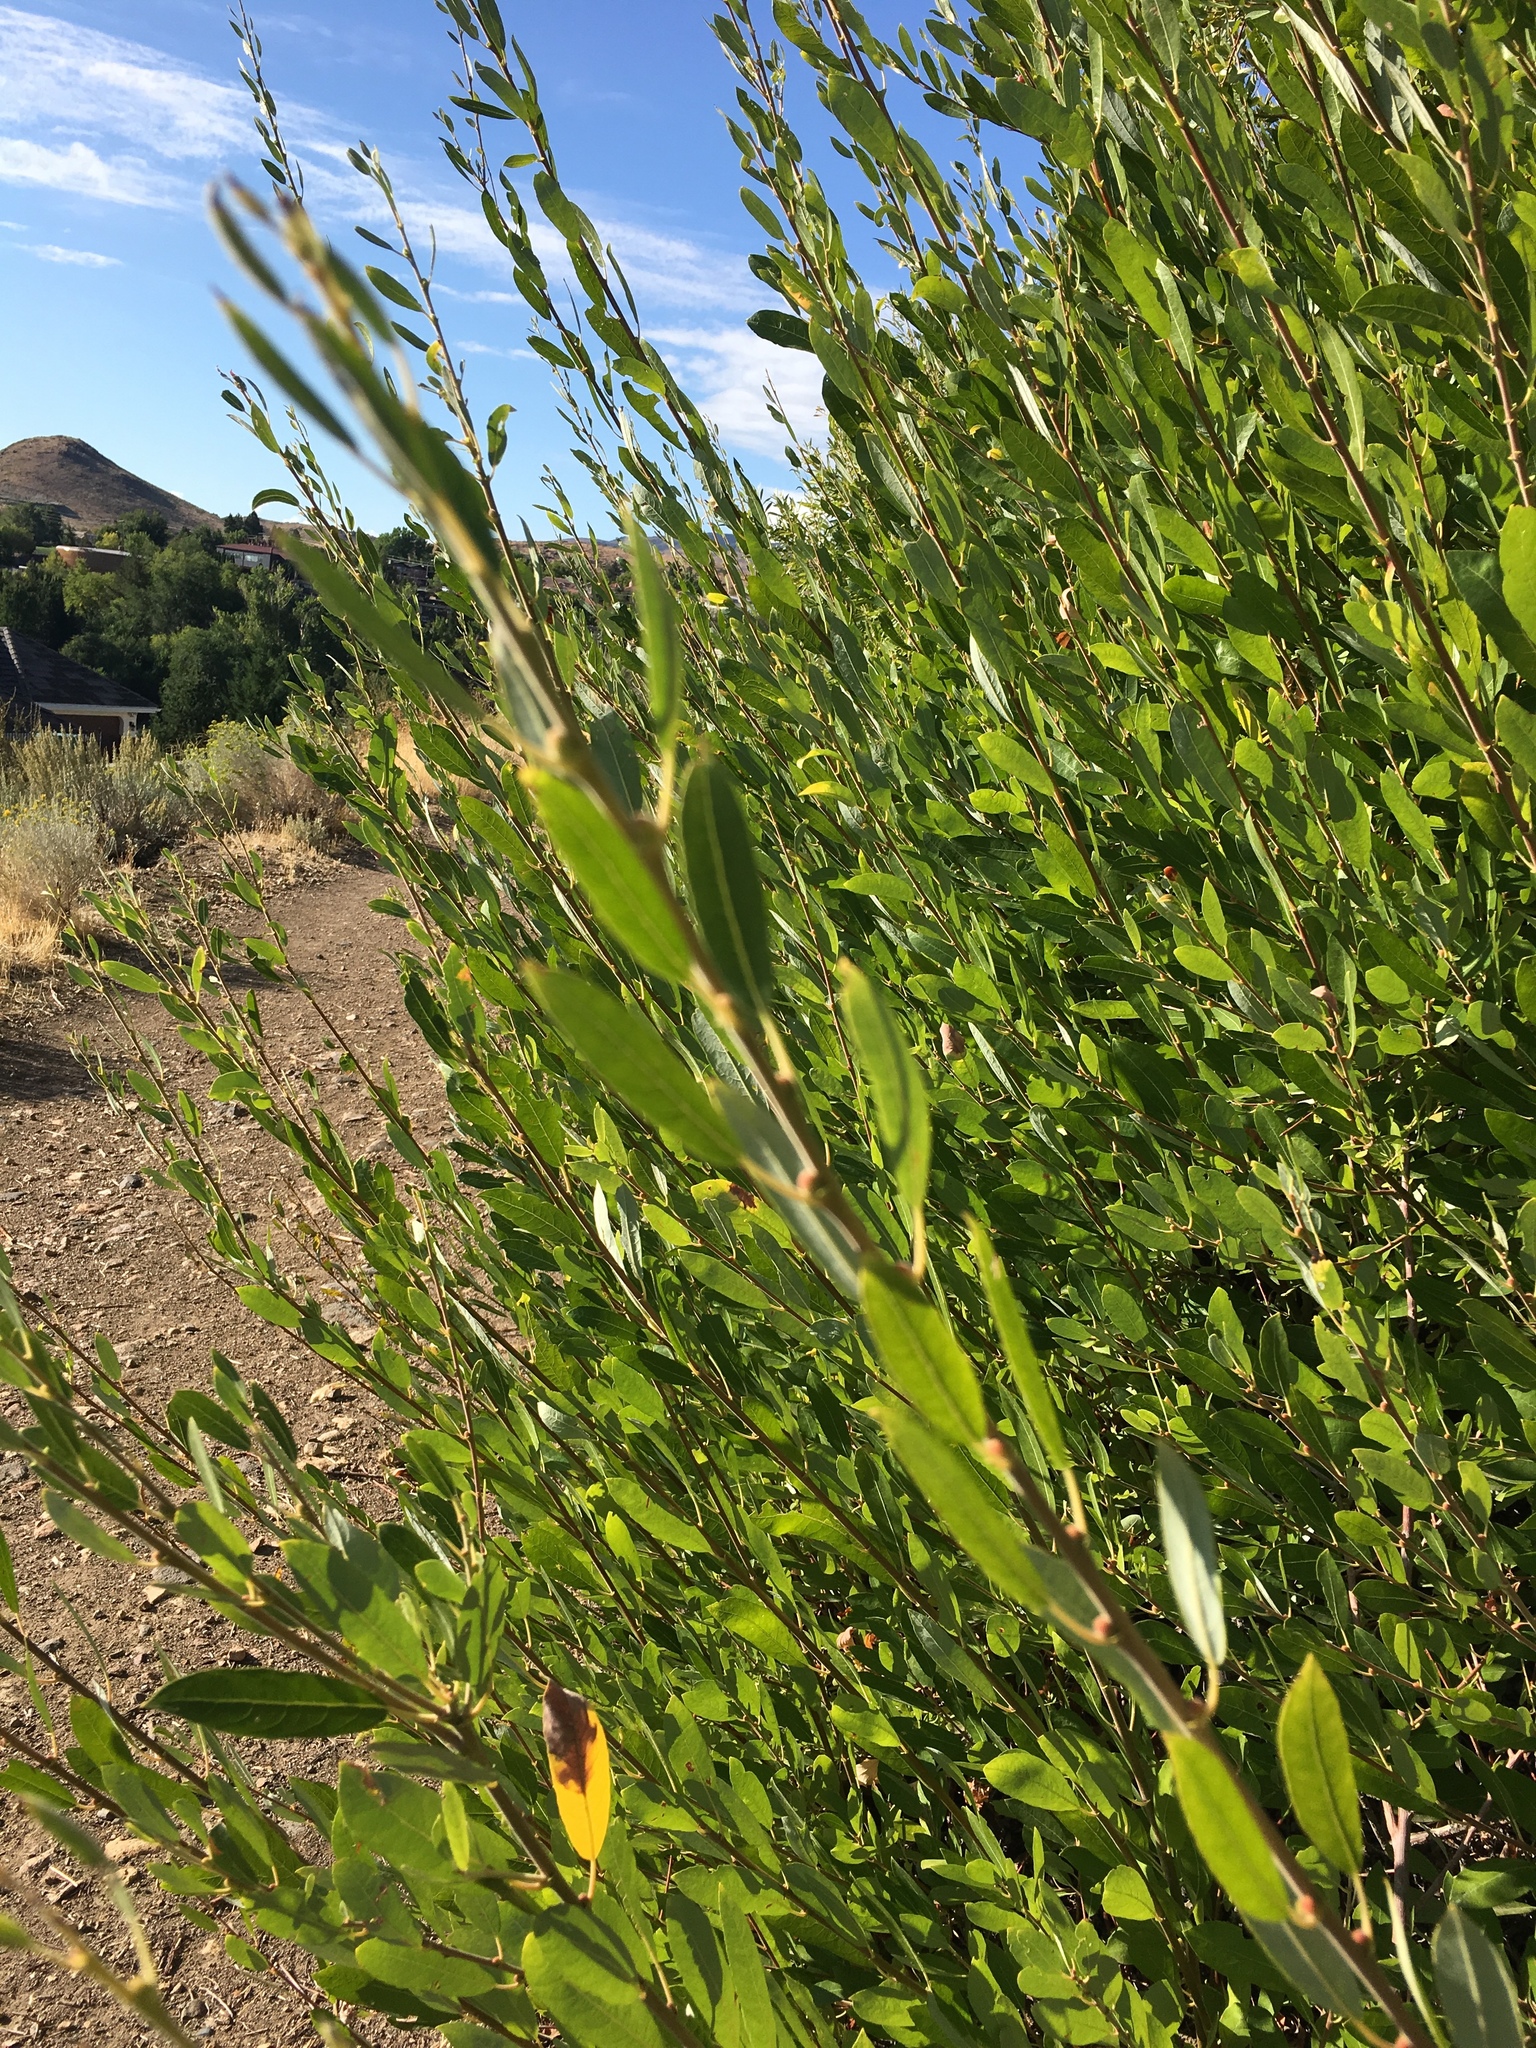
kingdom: Plantae
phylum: Tracheophyta
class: Magnoliopsida
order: Malpighiales
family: Salicaceae
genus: Salix
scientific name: Salix exigua
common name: Coyote willow
